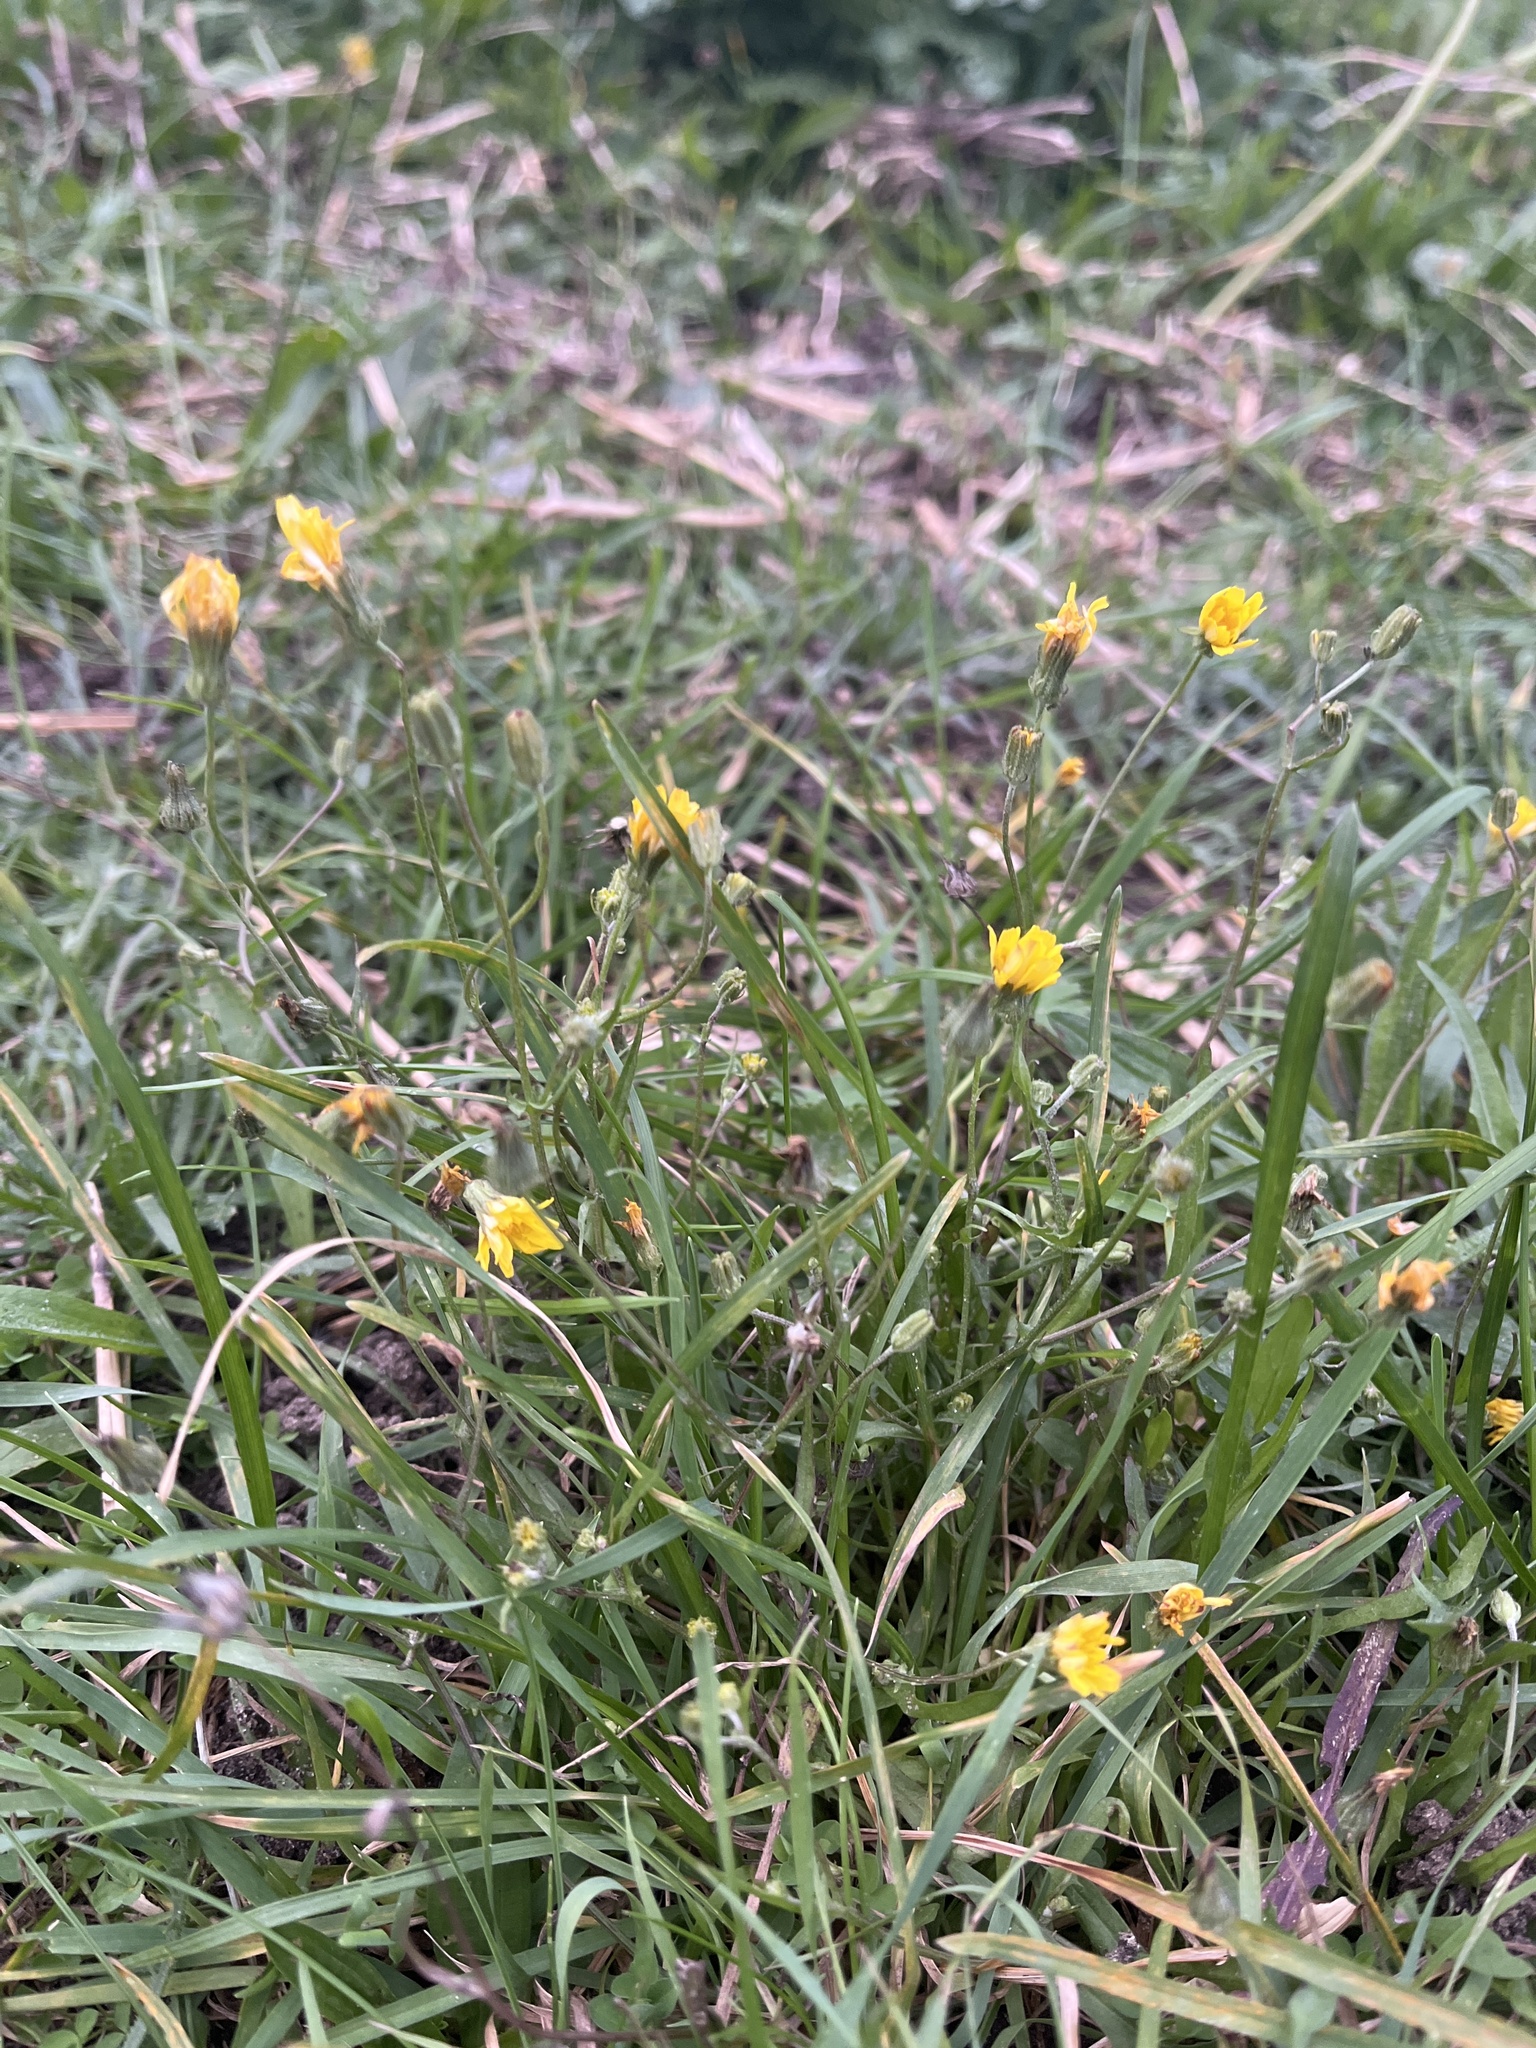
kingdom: Plantae
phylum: Tracheophyta
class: Magnoliopsida
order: Asterales
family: Asteraceae
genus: Crepis
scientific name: Crepis capillaris
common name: Smooth hawksbeard
